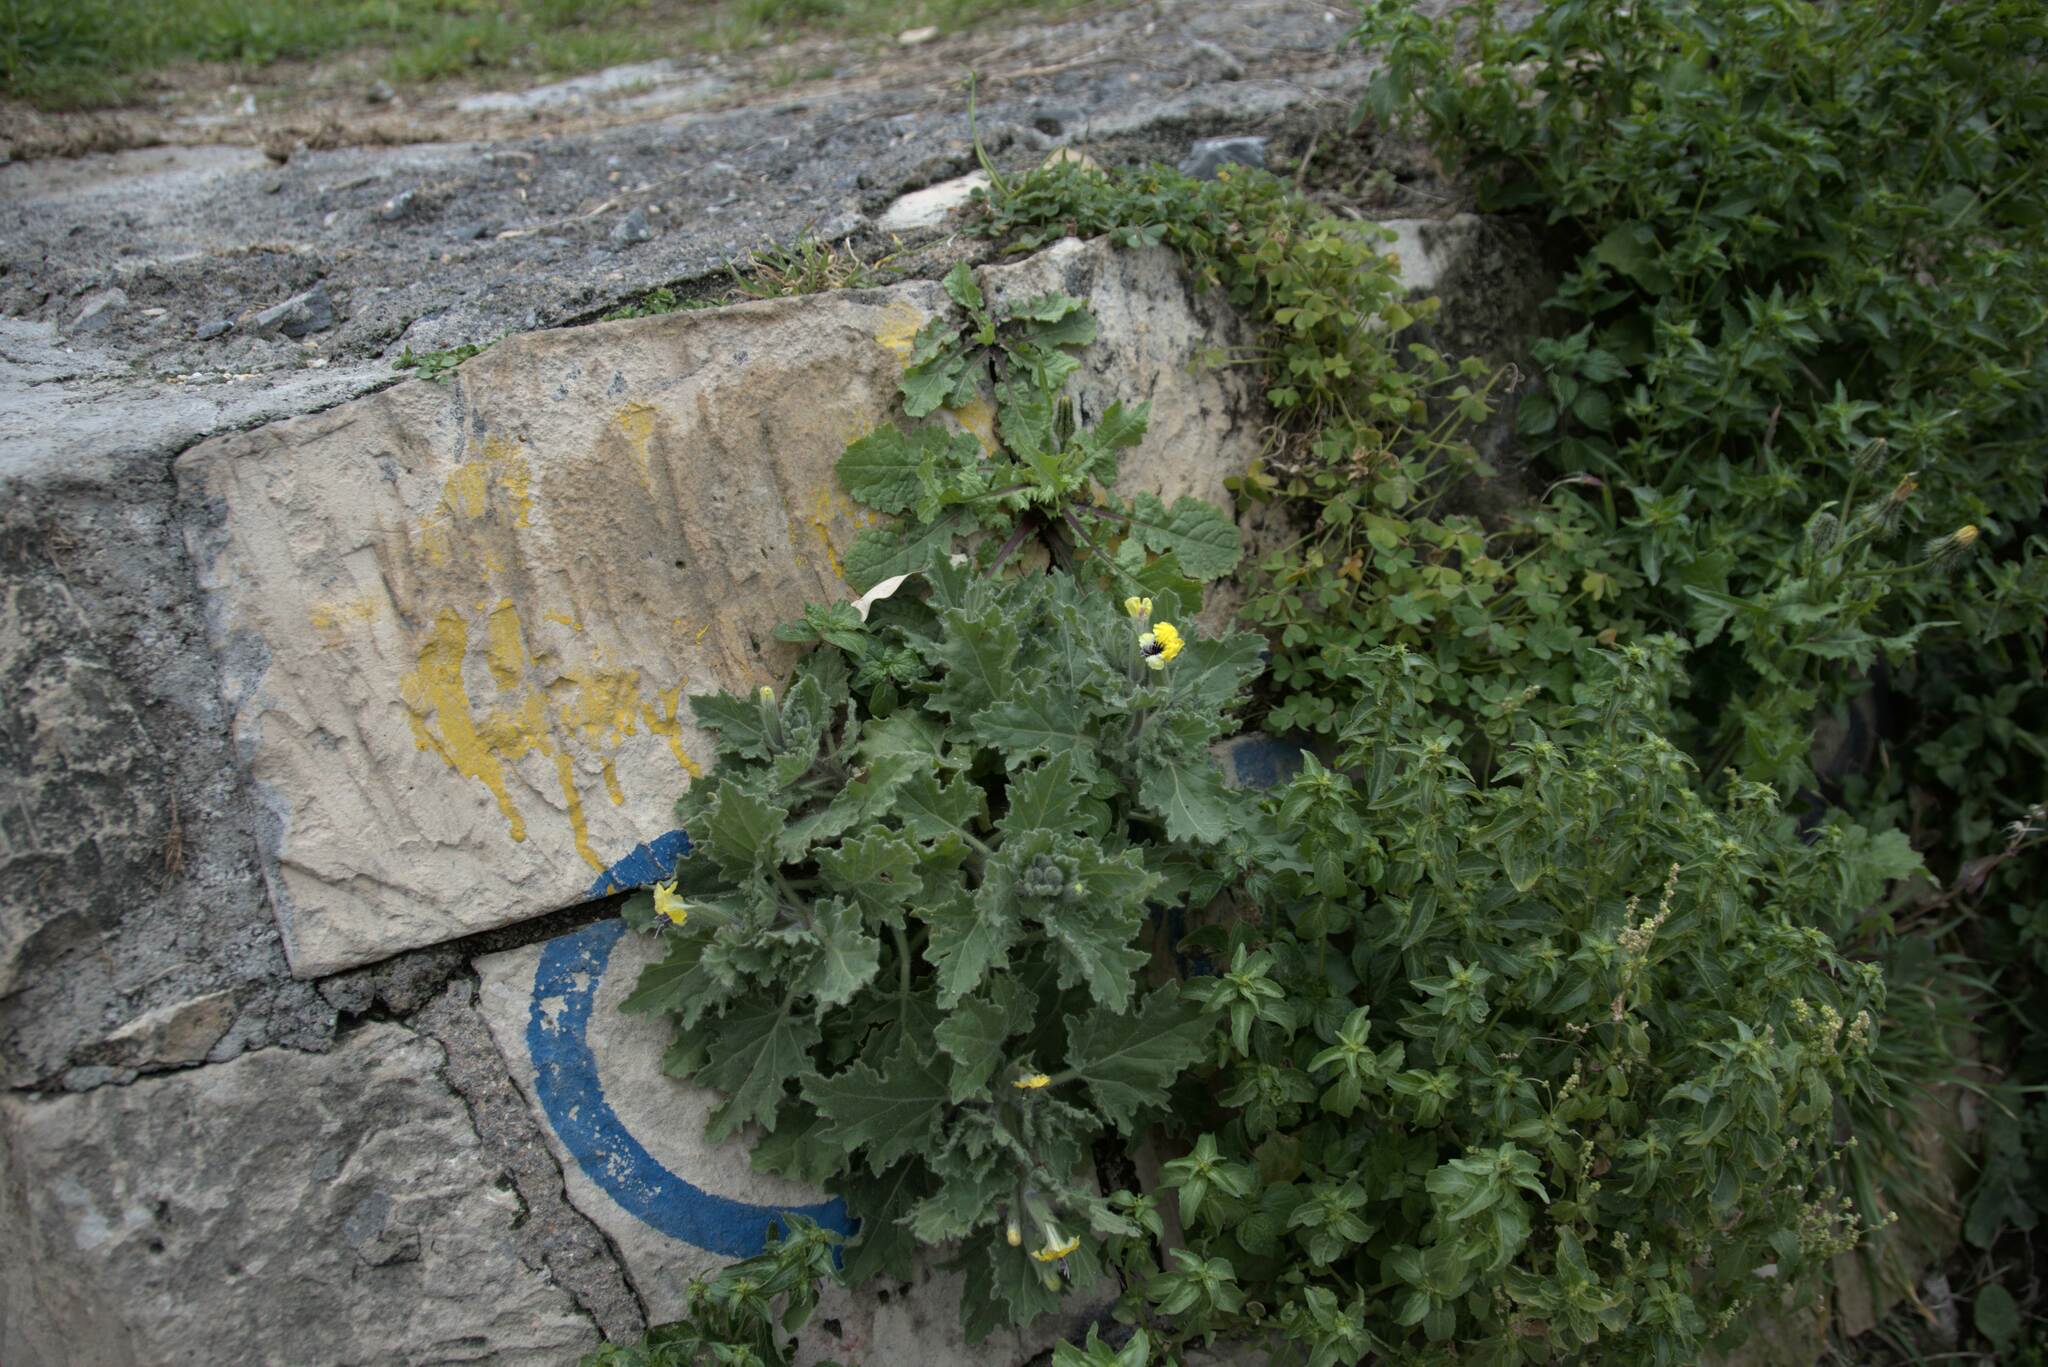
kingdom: Plantae
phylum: Tracheophyta
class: Magnoliopsida
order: Solanales
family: Solanaceae
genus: Hyoscyamus
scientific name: Hyoscyamus aureus
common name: Golden henbane
